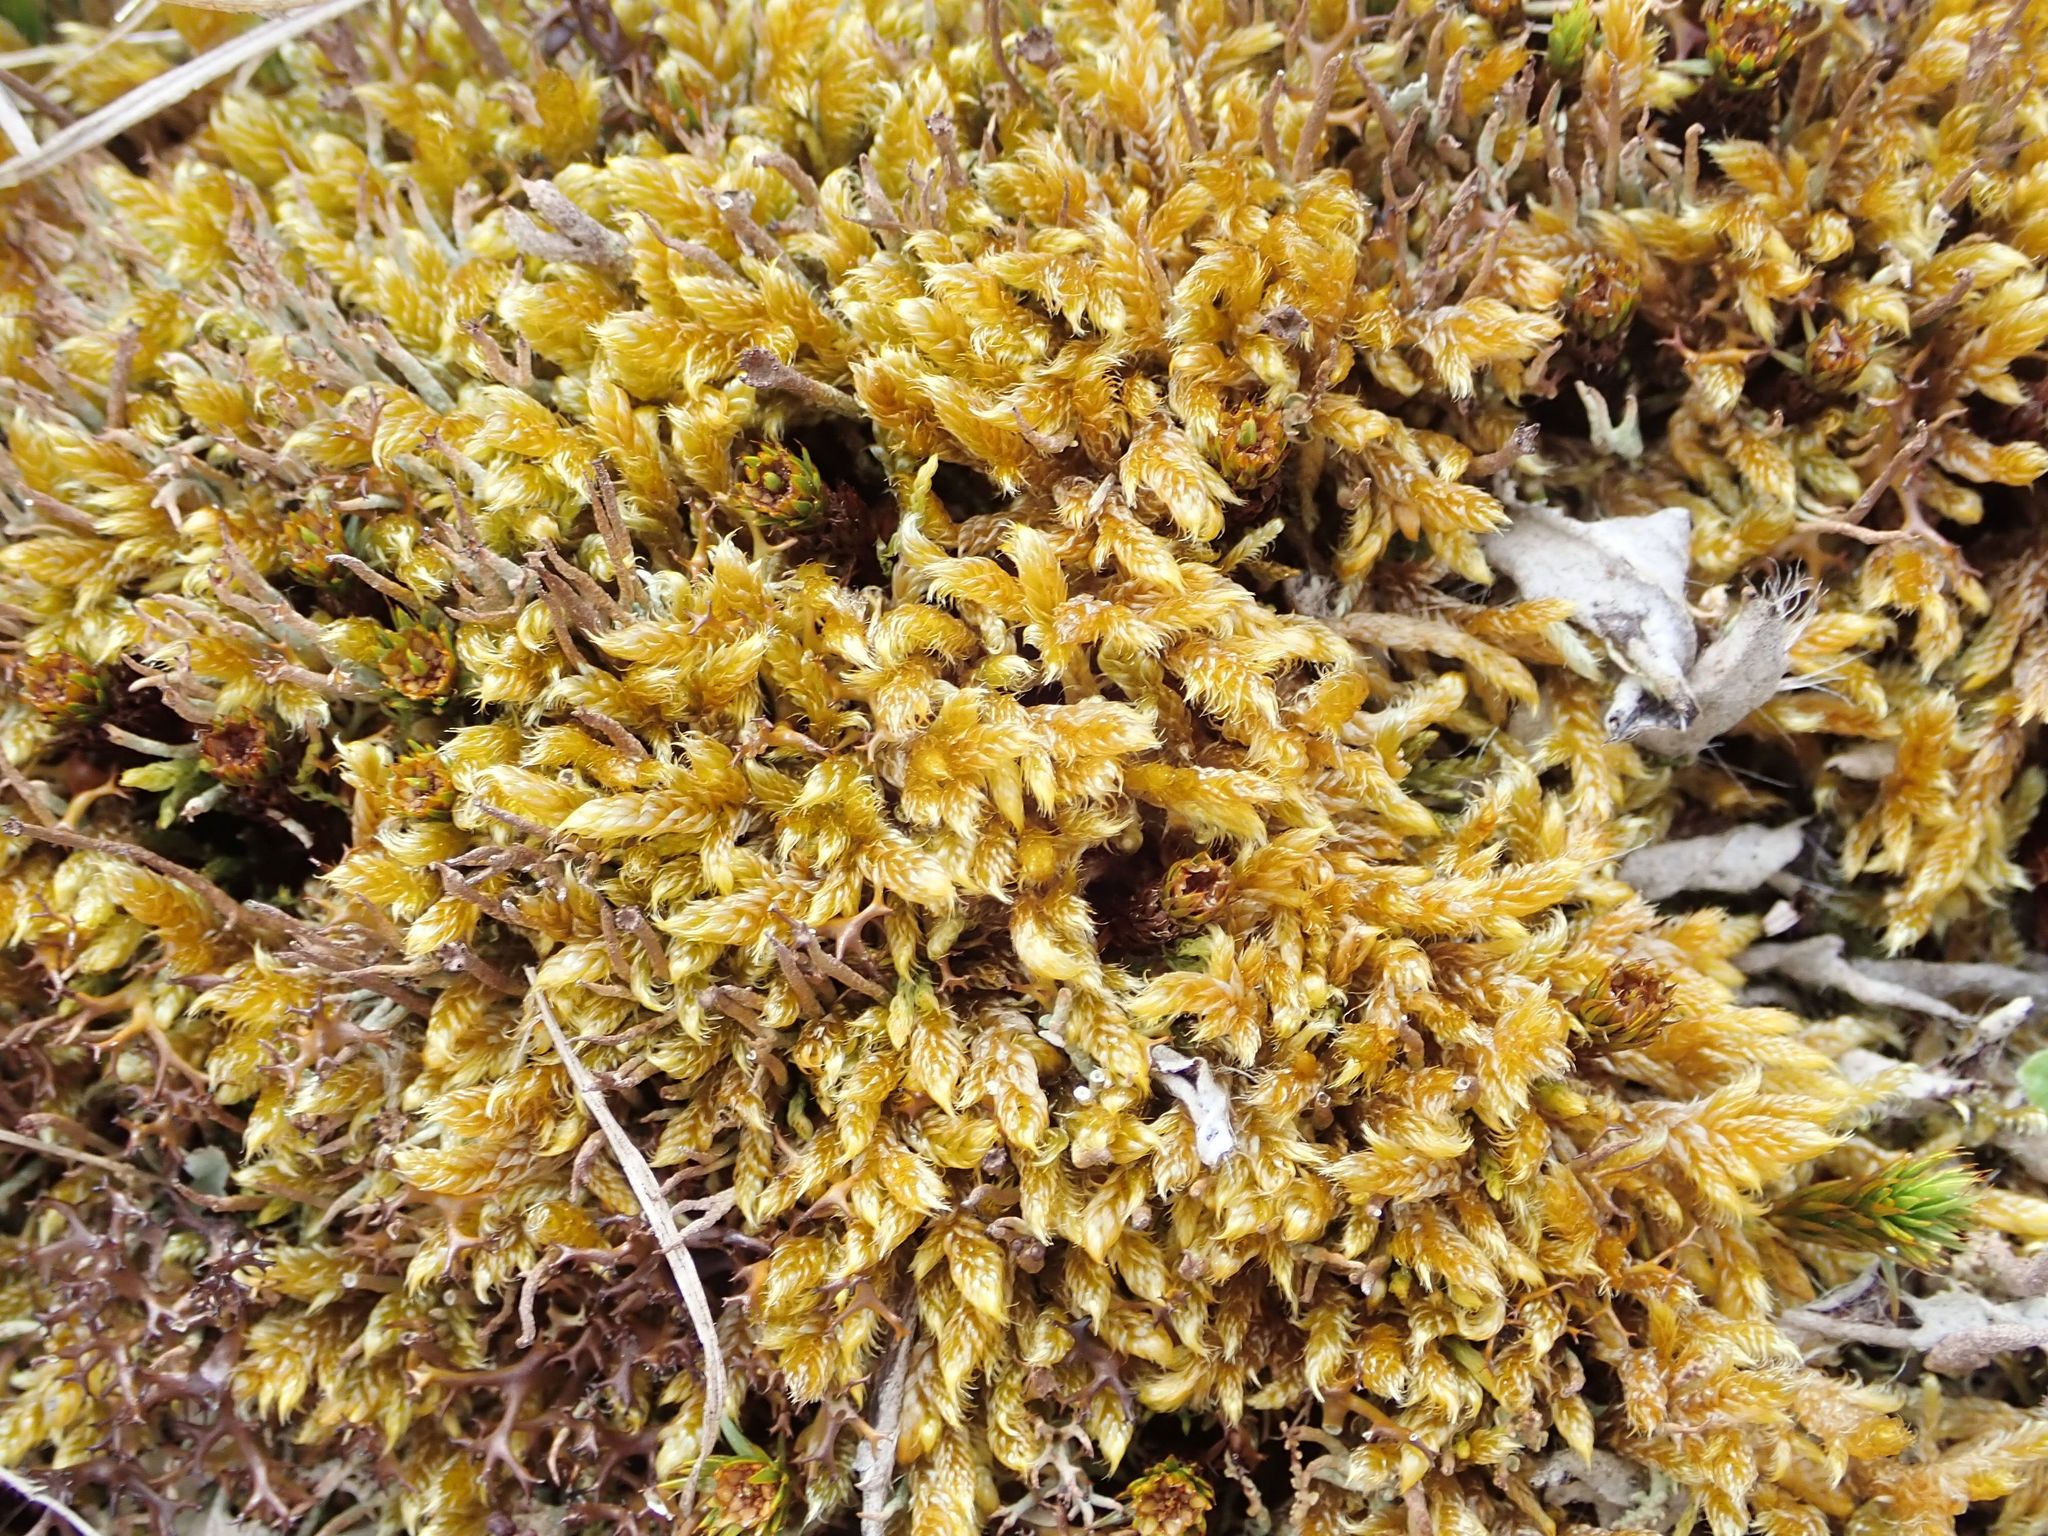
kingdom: Plantae
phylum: Bryophyta
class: Bryopsida
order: Hypnales
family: Hypnaceae
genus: Hypnum
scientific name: Hypnum cupressiforme
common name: Cypress-leaved plait-moss
